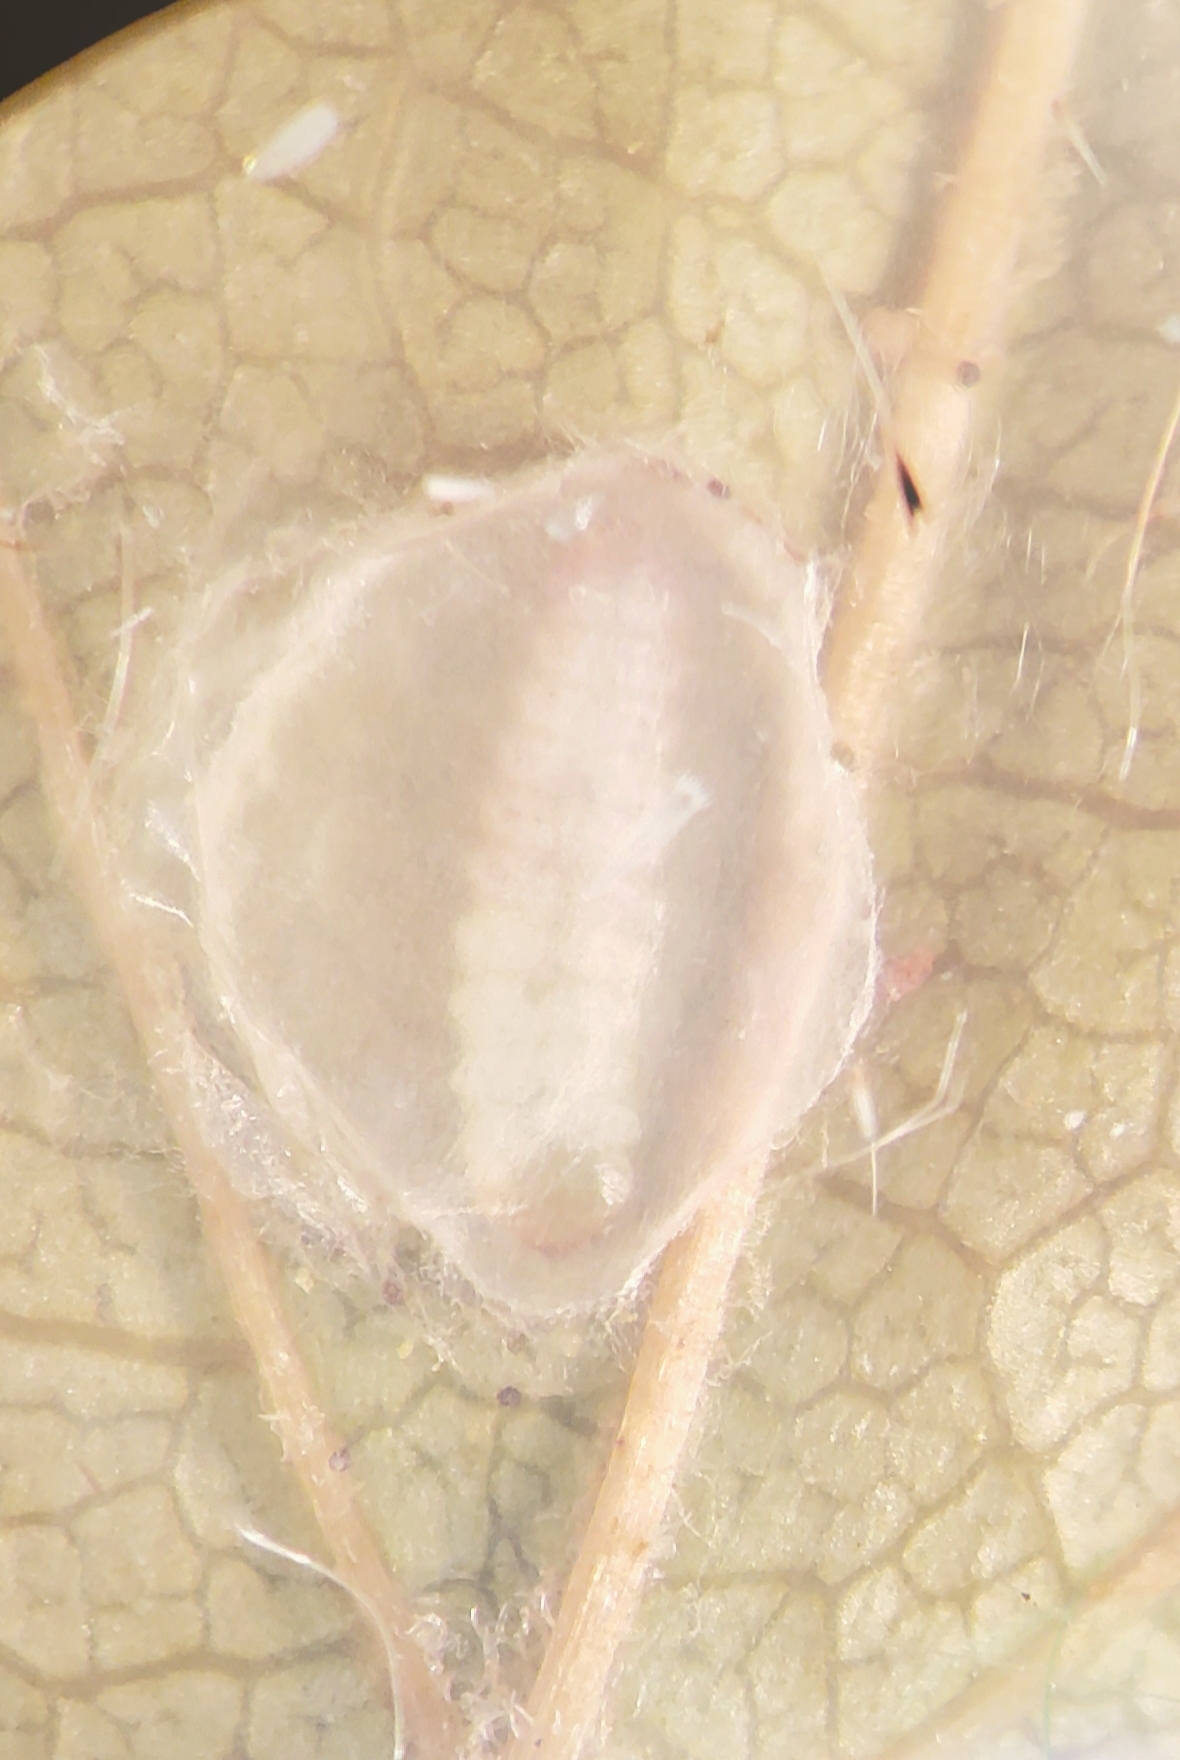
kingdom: Animalia
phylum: Arthropoda
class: Insecta
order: Lepidoptera
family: Heliozelidae
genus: Antispila
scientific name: Antispila voraginella
